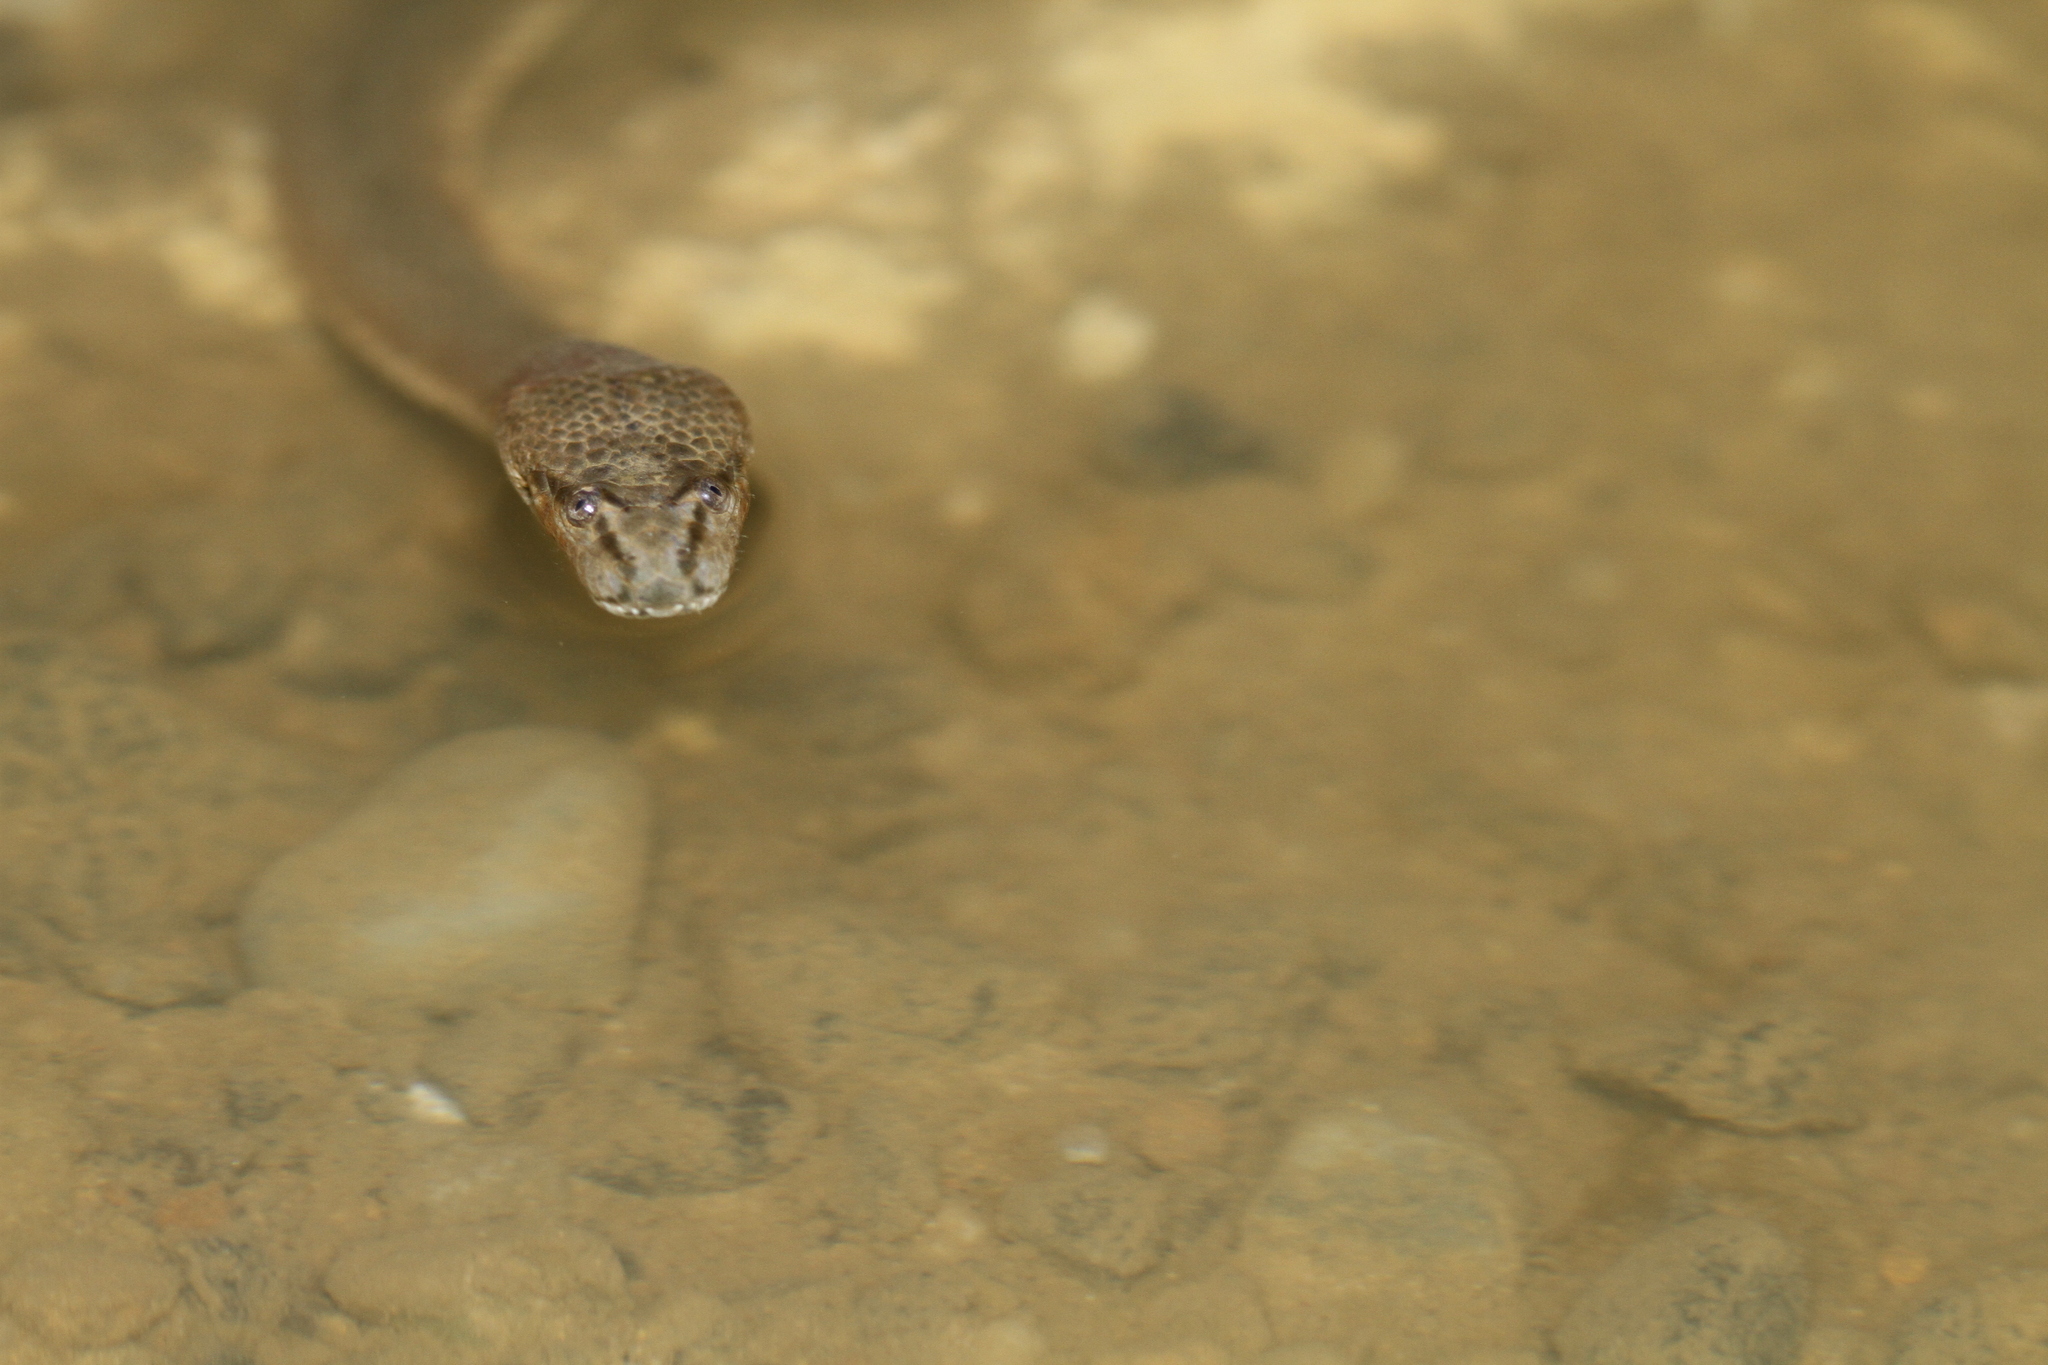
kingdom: Animalia
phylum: Chordata
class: Squamata
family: Homalopsidae
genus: Cerberus
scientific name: Cerberus schneiderii
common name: Southeast asian bockadam
